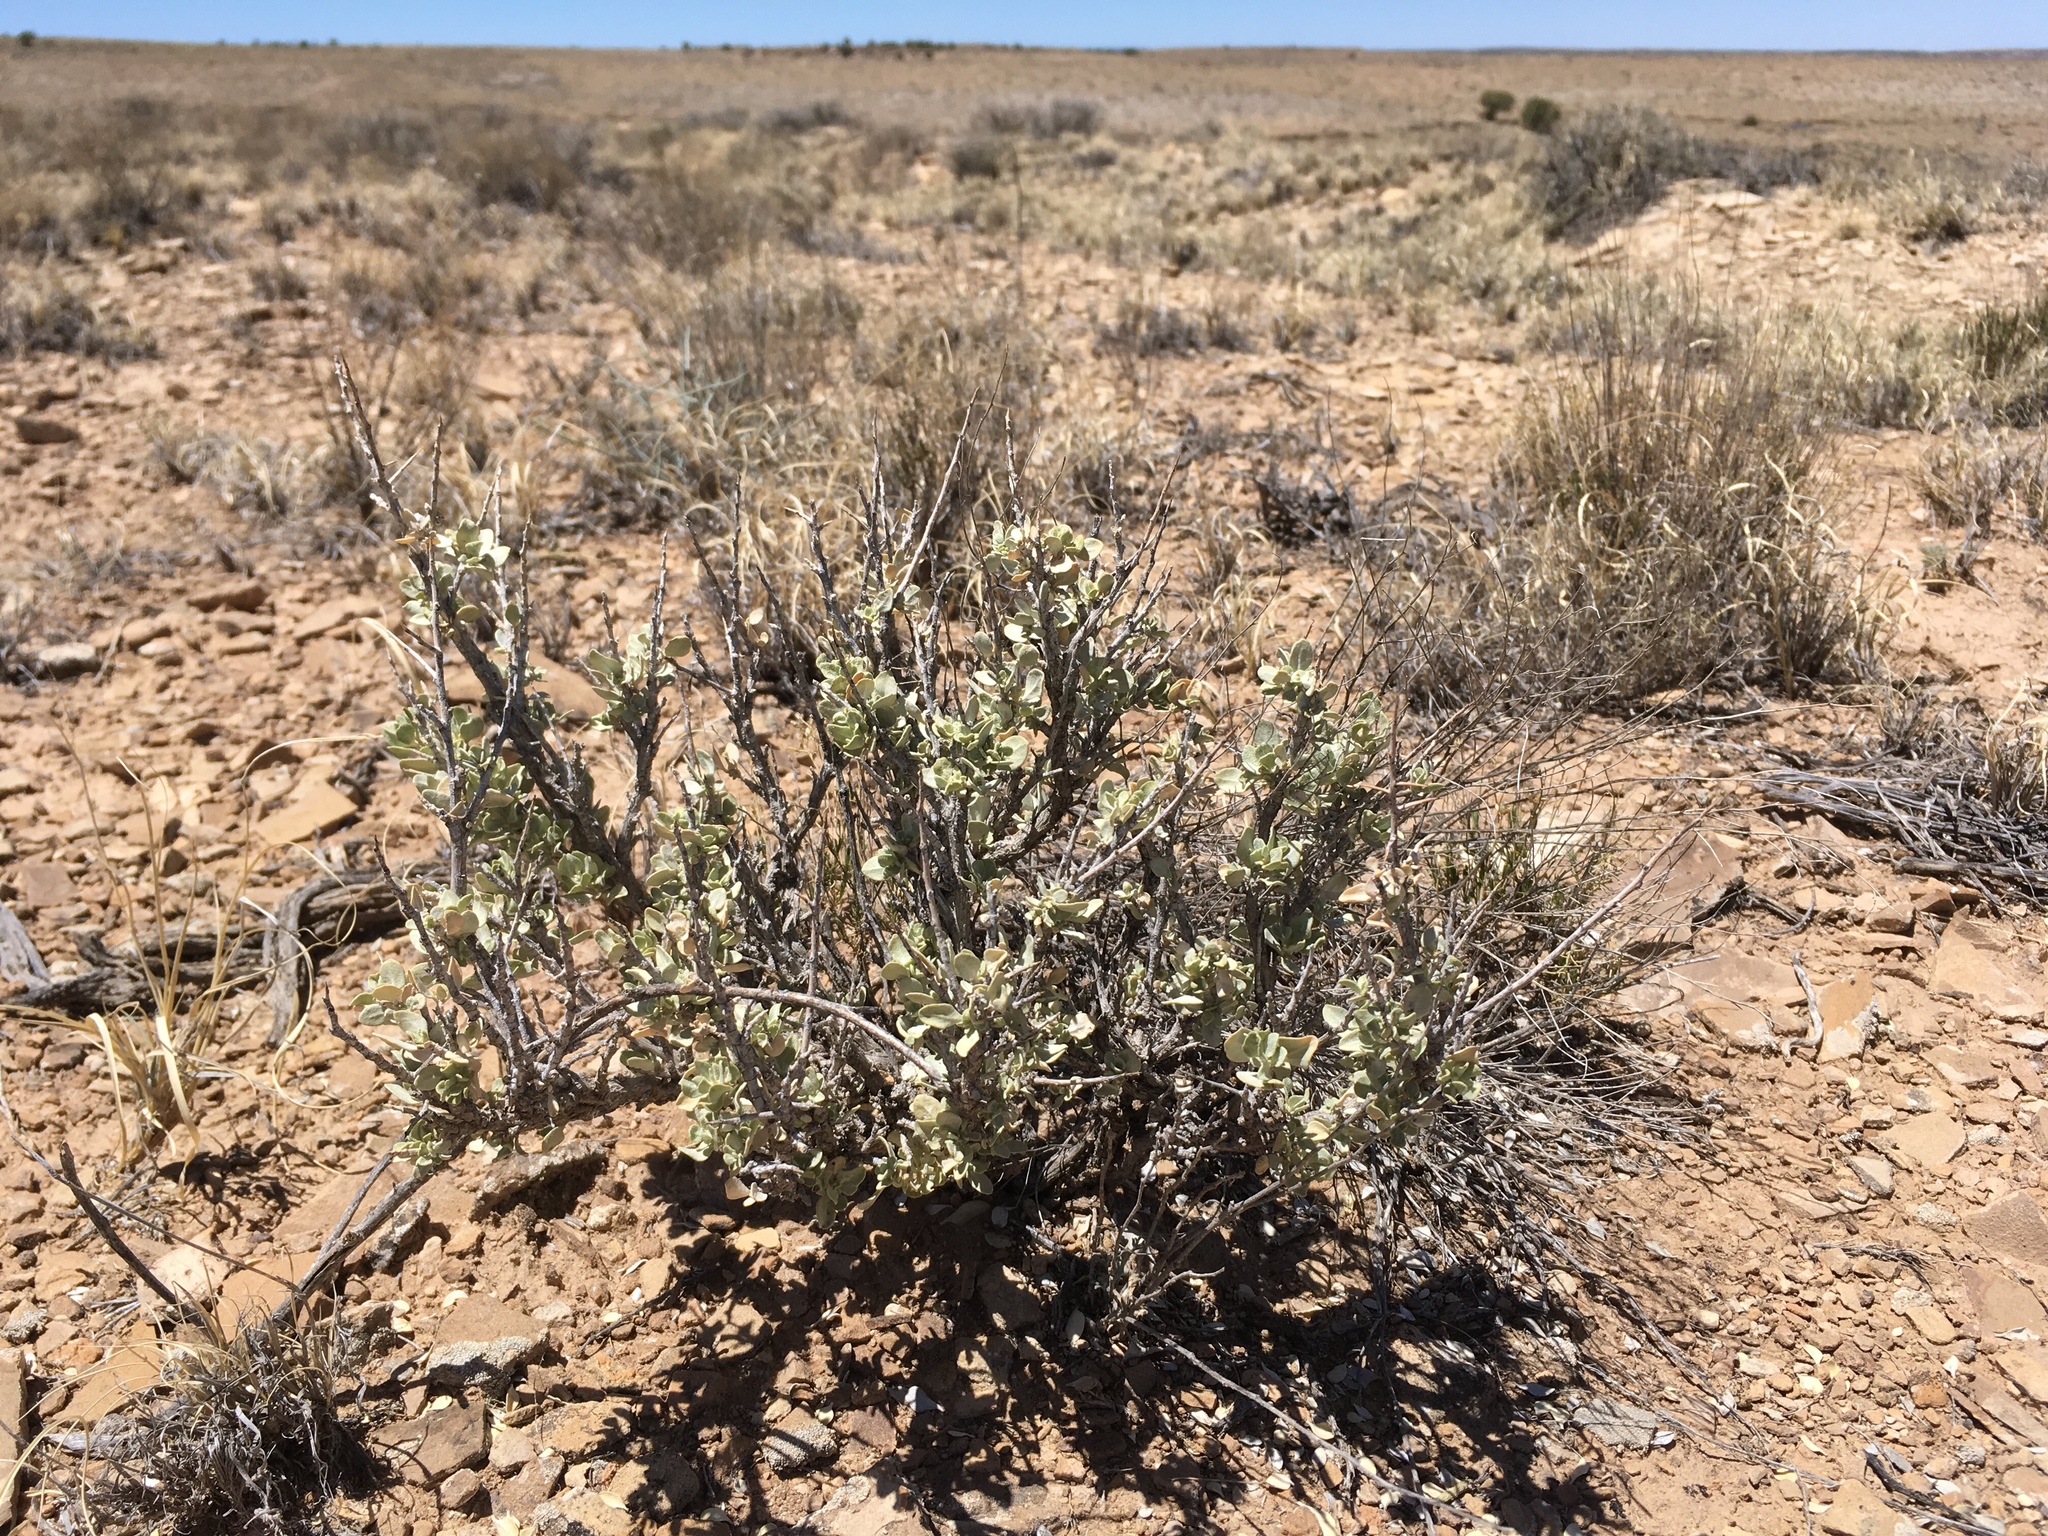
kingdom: Plantae
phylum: Tracheophyta
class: Magnoliopsida
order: Caryophyllales
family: Amaranthaceae
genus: Atriplex
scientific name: Atriplex confertifolia
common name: Shadscale
